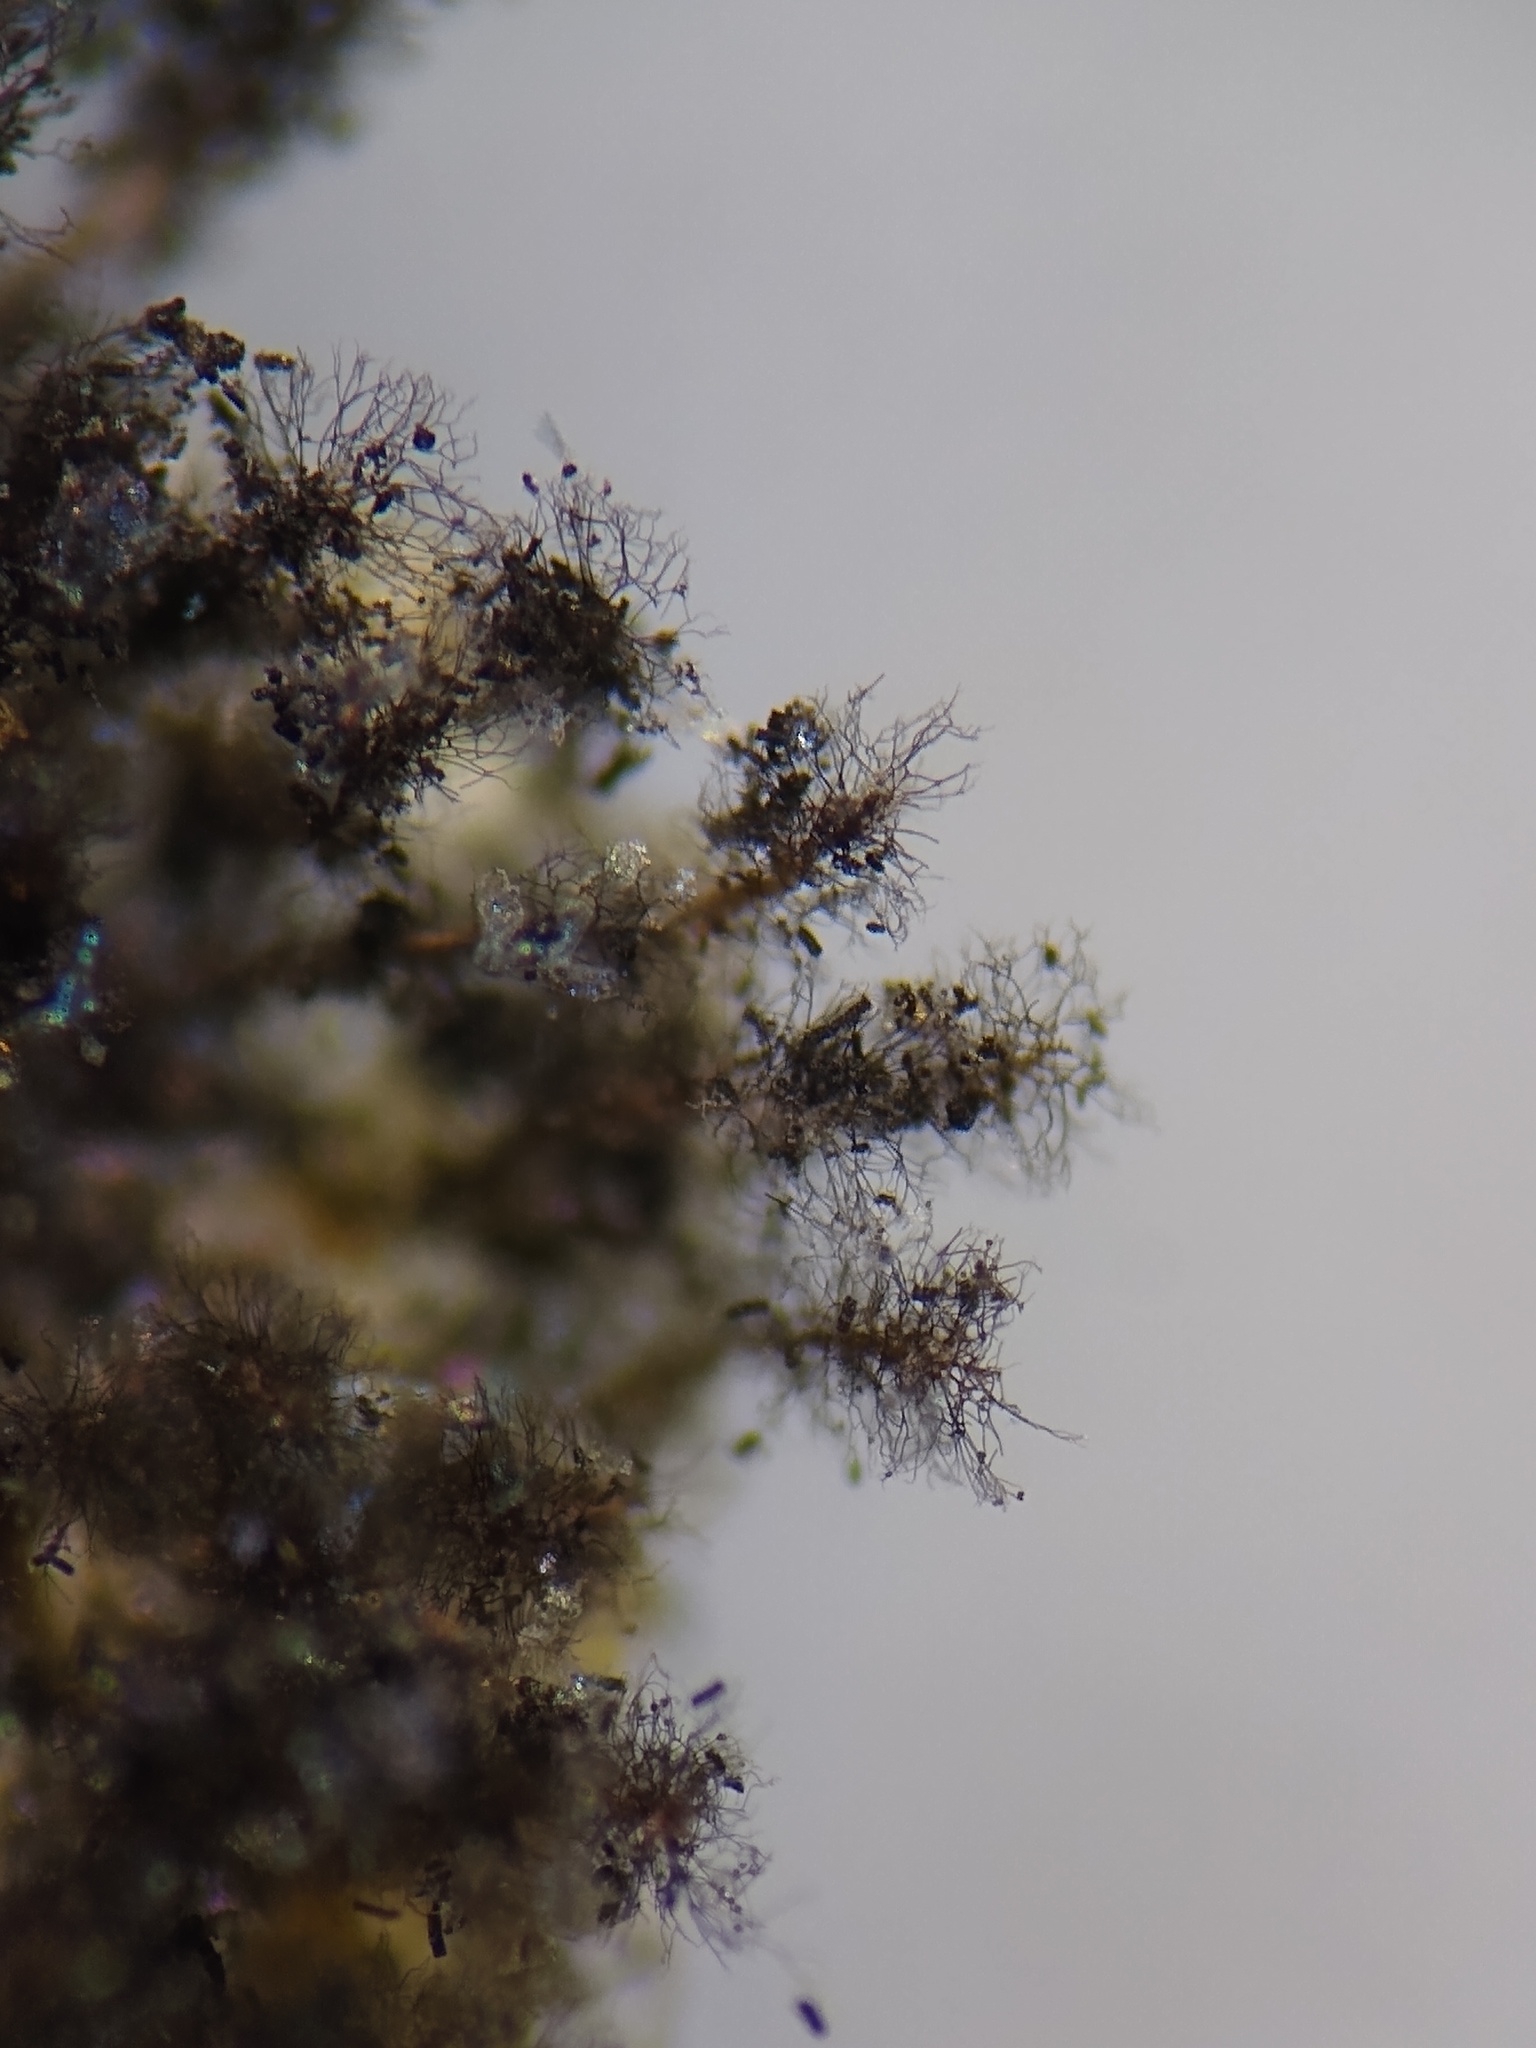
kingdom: Protozoa
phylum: Mycetozoa
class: Myxomycetes
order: Stemonitidales
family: Stemonitidaceae
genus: Paradiachea
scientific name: Paradiachea caespitosa
